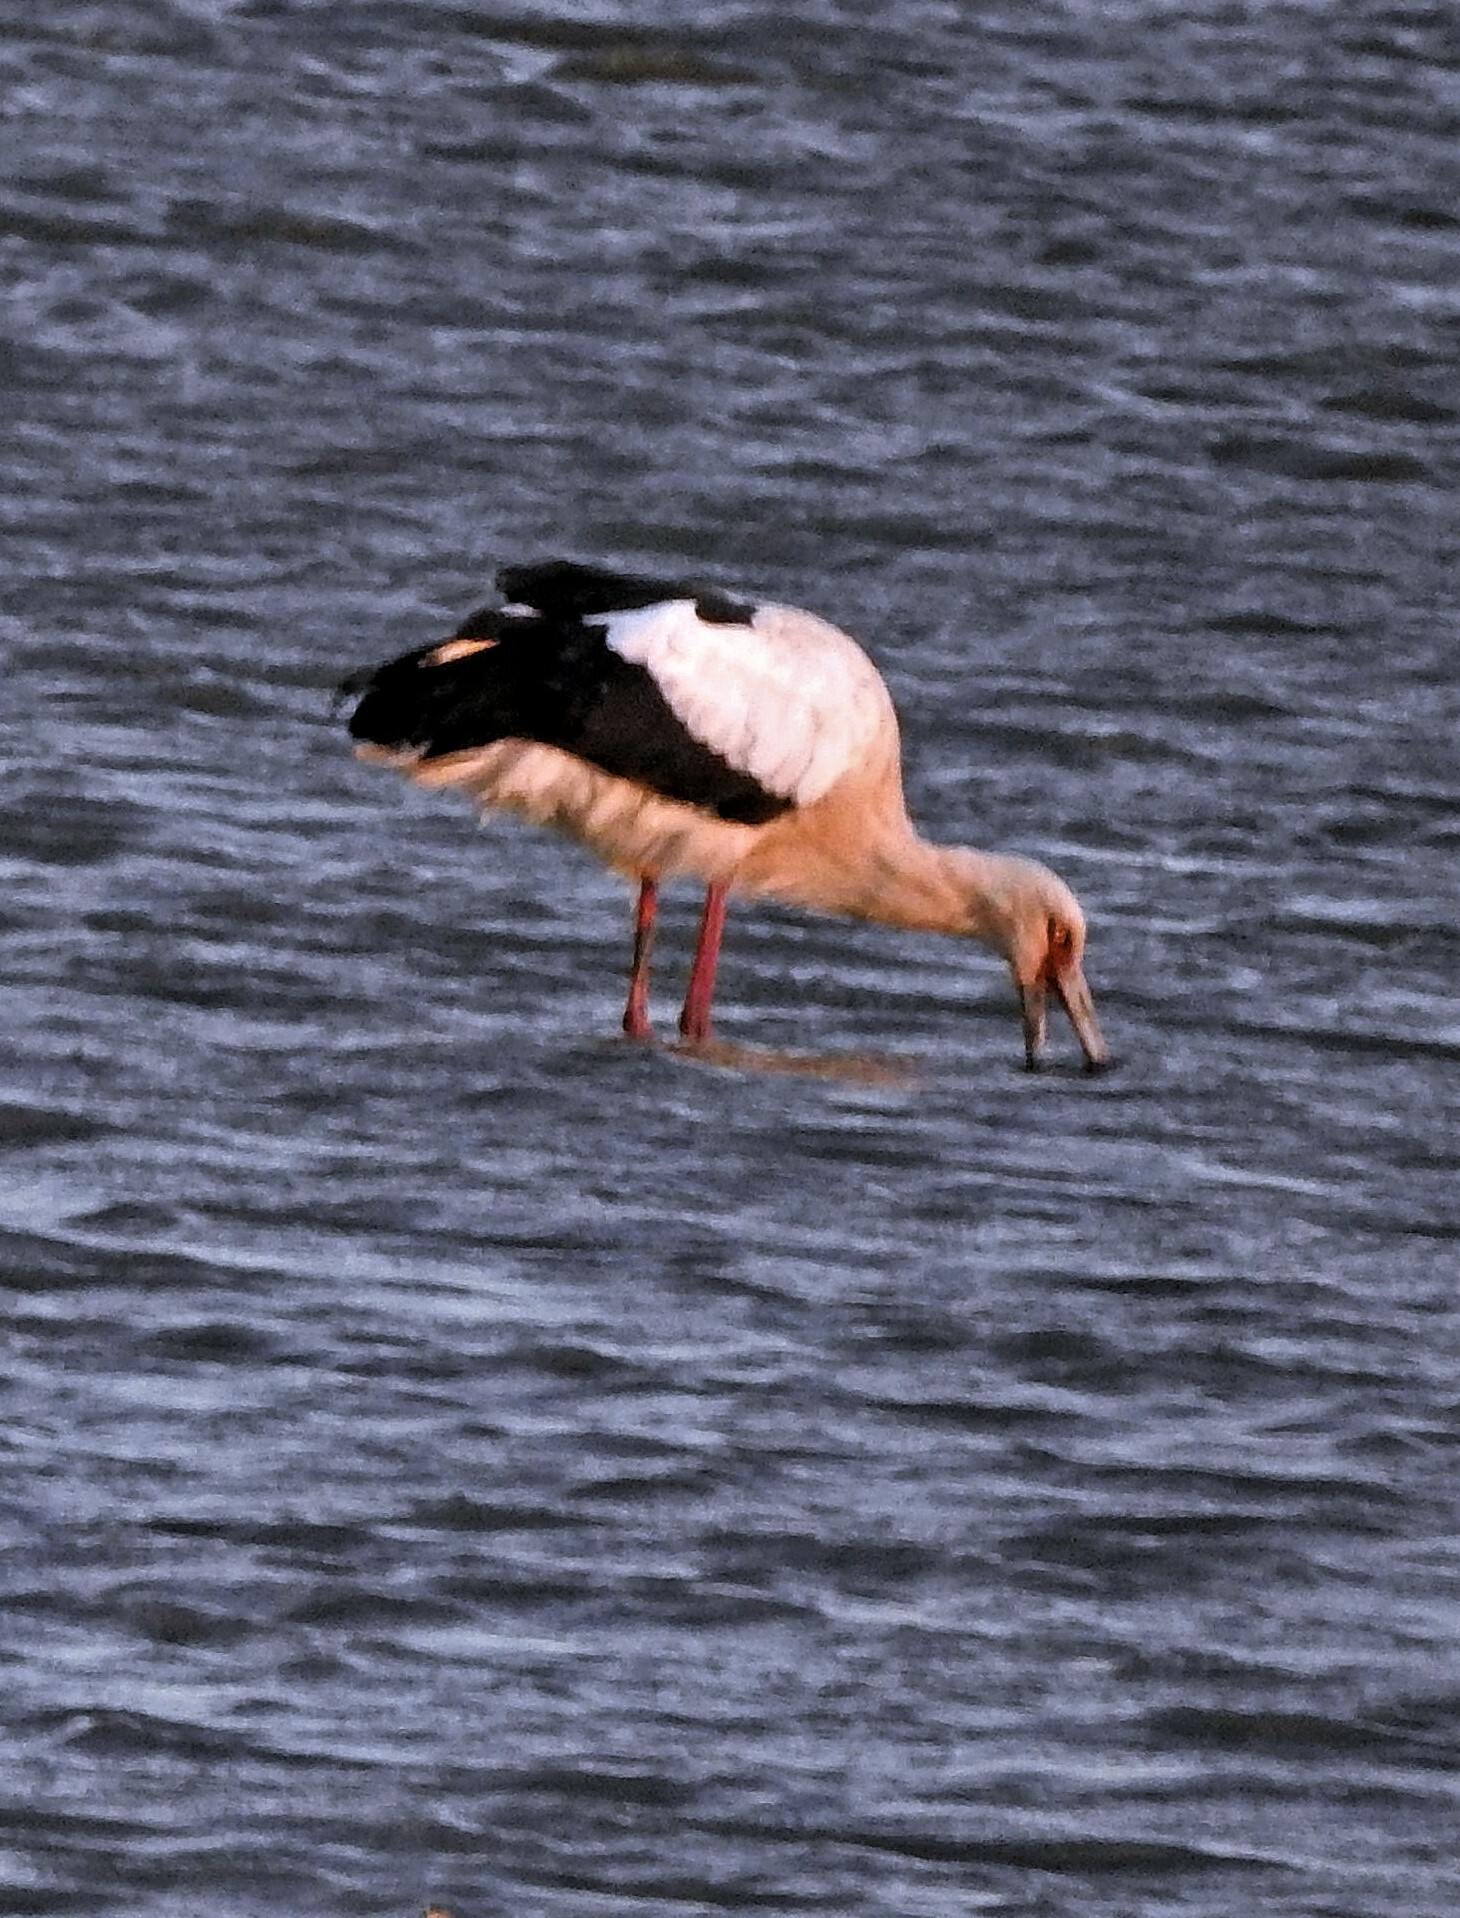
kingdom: Animalia
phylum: Chordata
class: Aves
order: Ciconiiformes
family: Ciconiidae
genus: Ciconia
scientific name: Ciconia maguari
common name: Maguari stork
